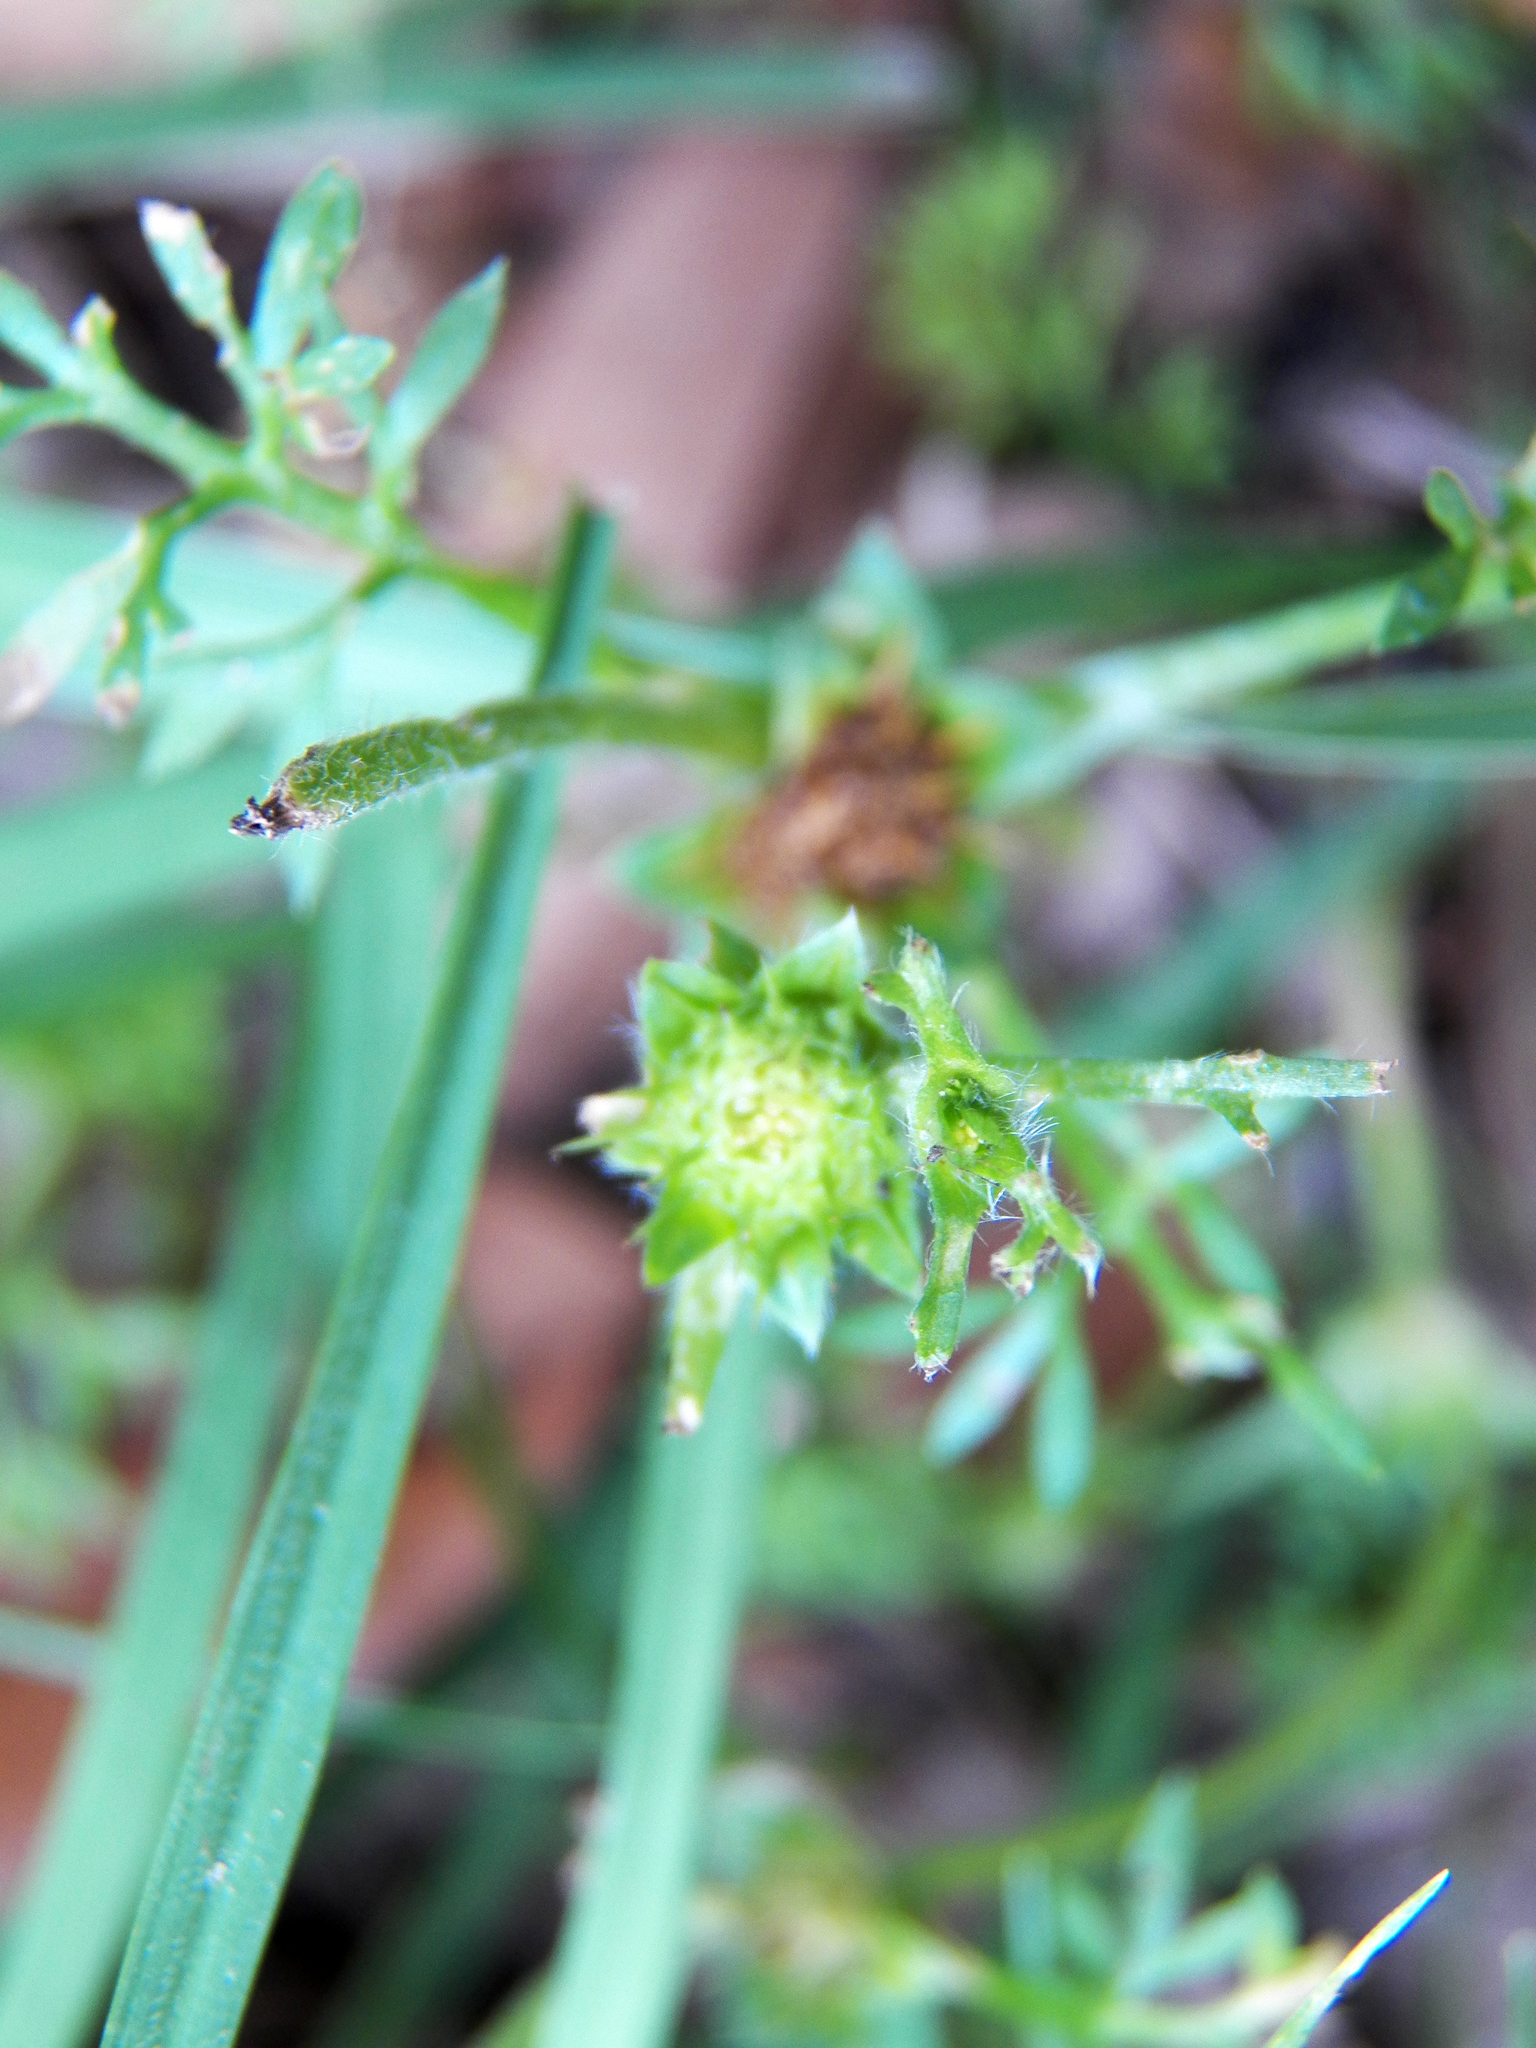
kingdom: Plantae
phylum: Tracheophyta
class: Magnoliopsida
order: Asterales
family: Asteraceae
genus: Soliva
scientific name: Soliva sessilis
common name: Field burrweed
